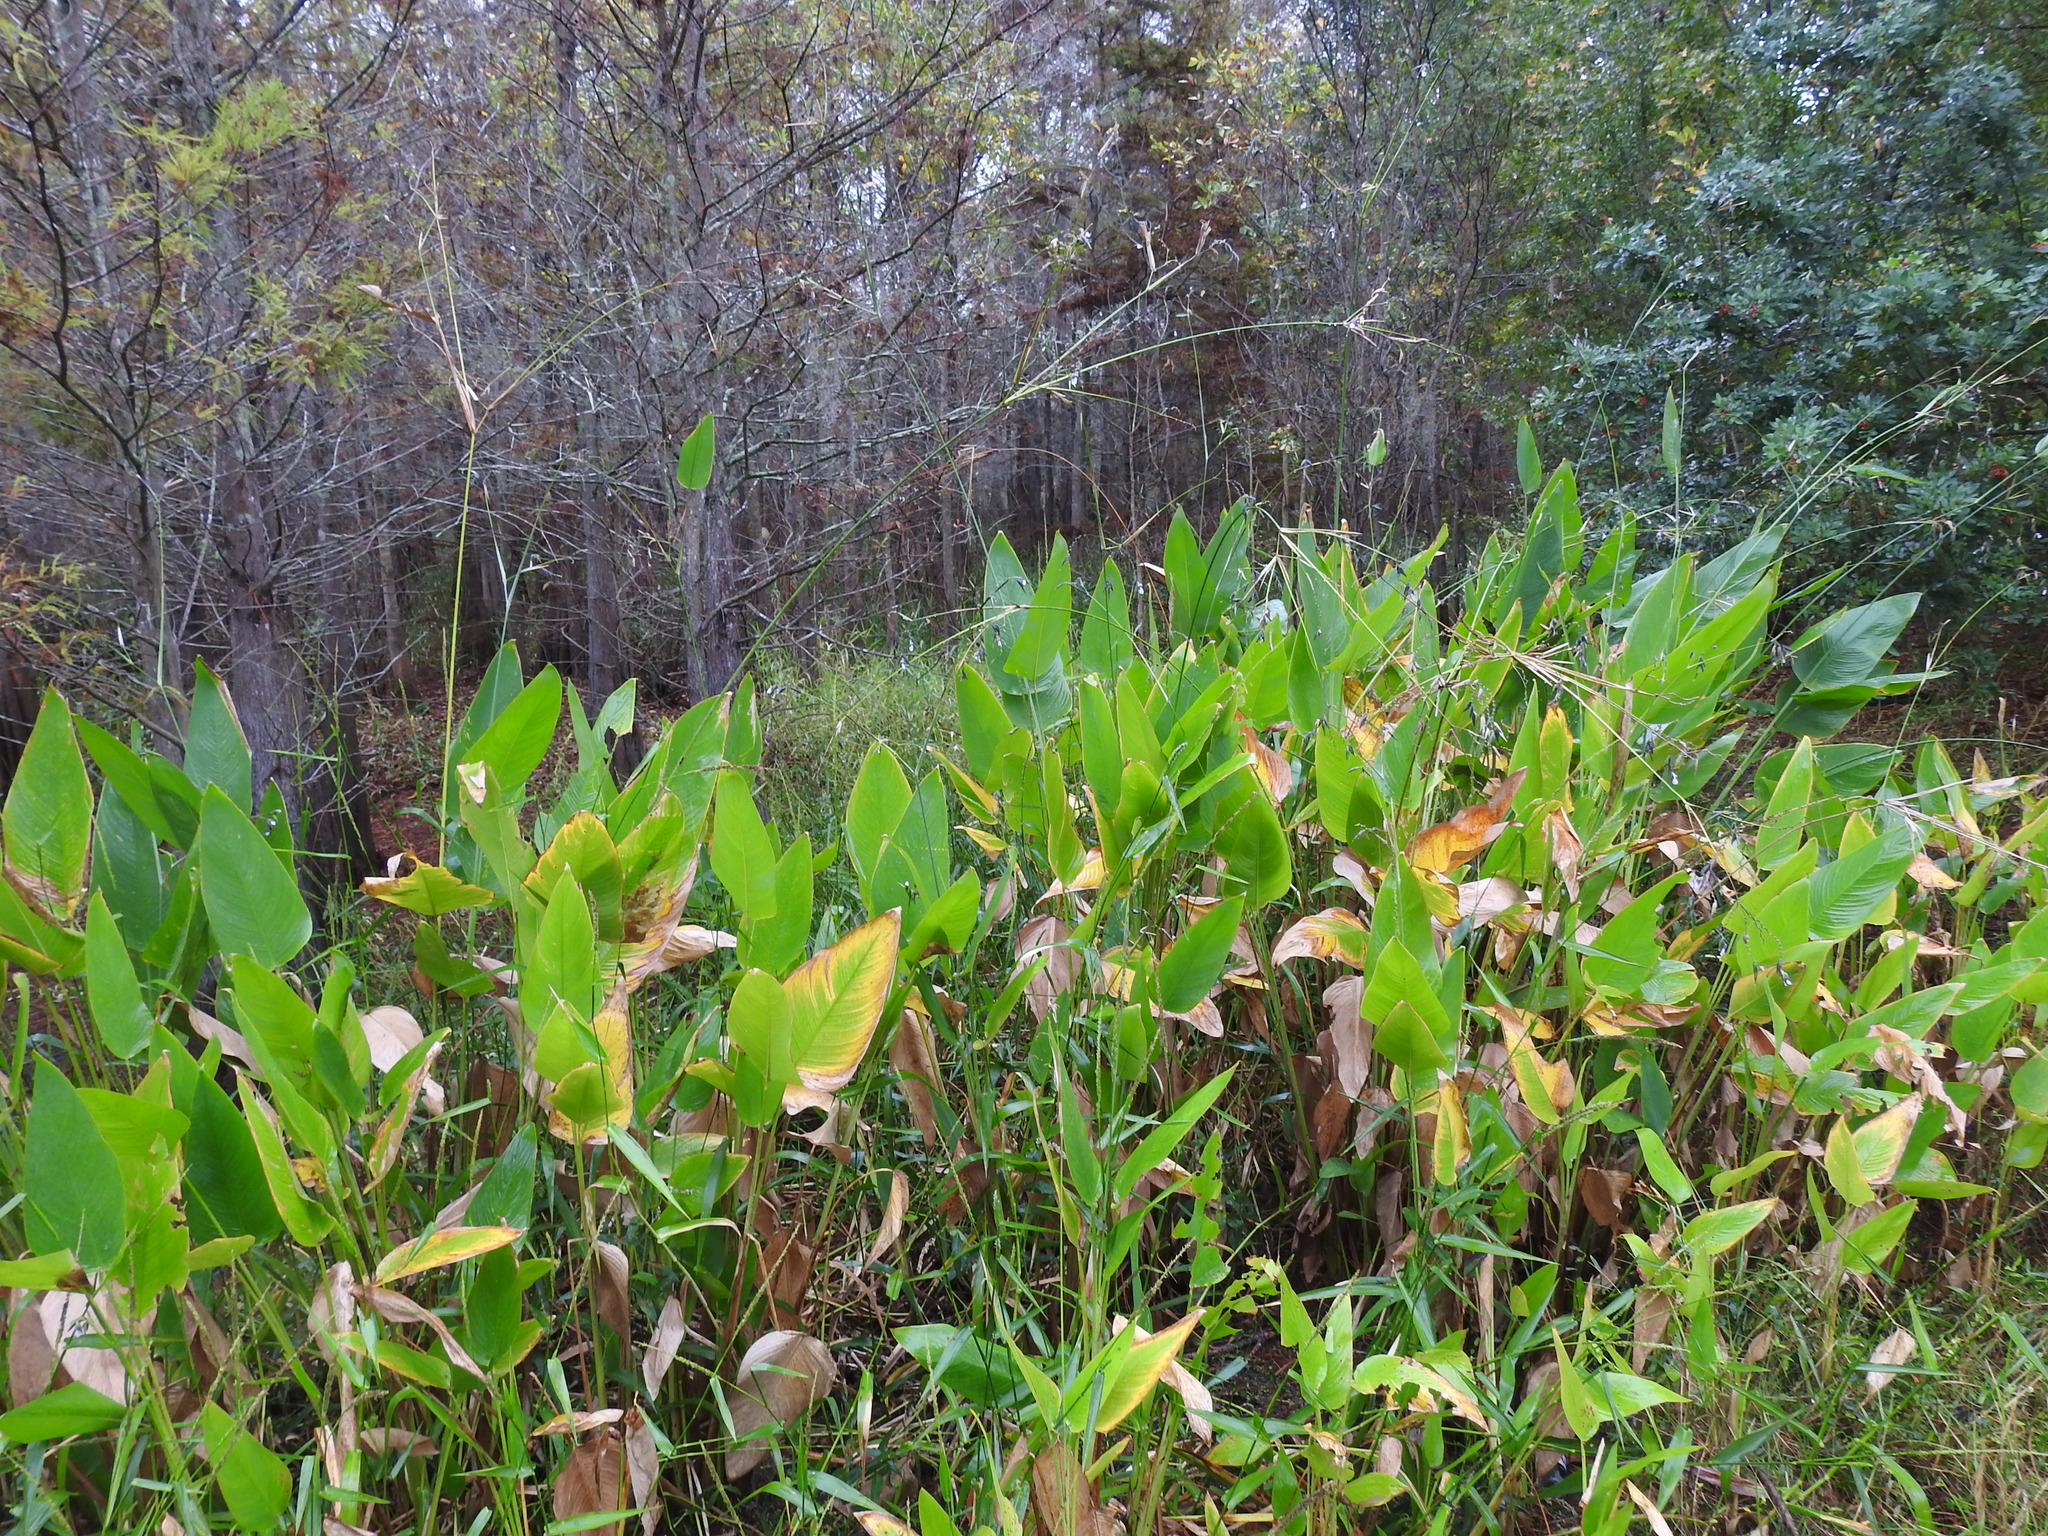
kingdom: Plantae
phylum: Tracheophyta
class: Liliopsida
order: Zingiberales
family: Marantaceae
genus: Thalia
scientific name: Thalia geniculata
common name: Arrowroot
